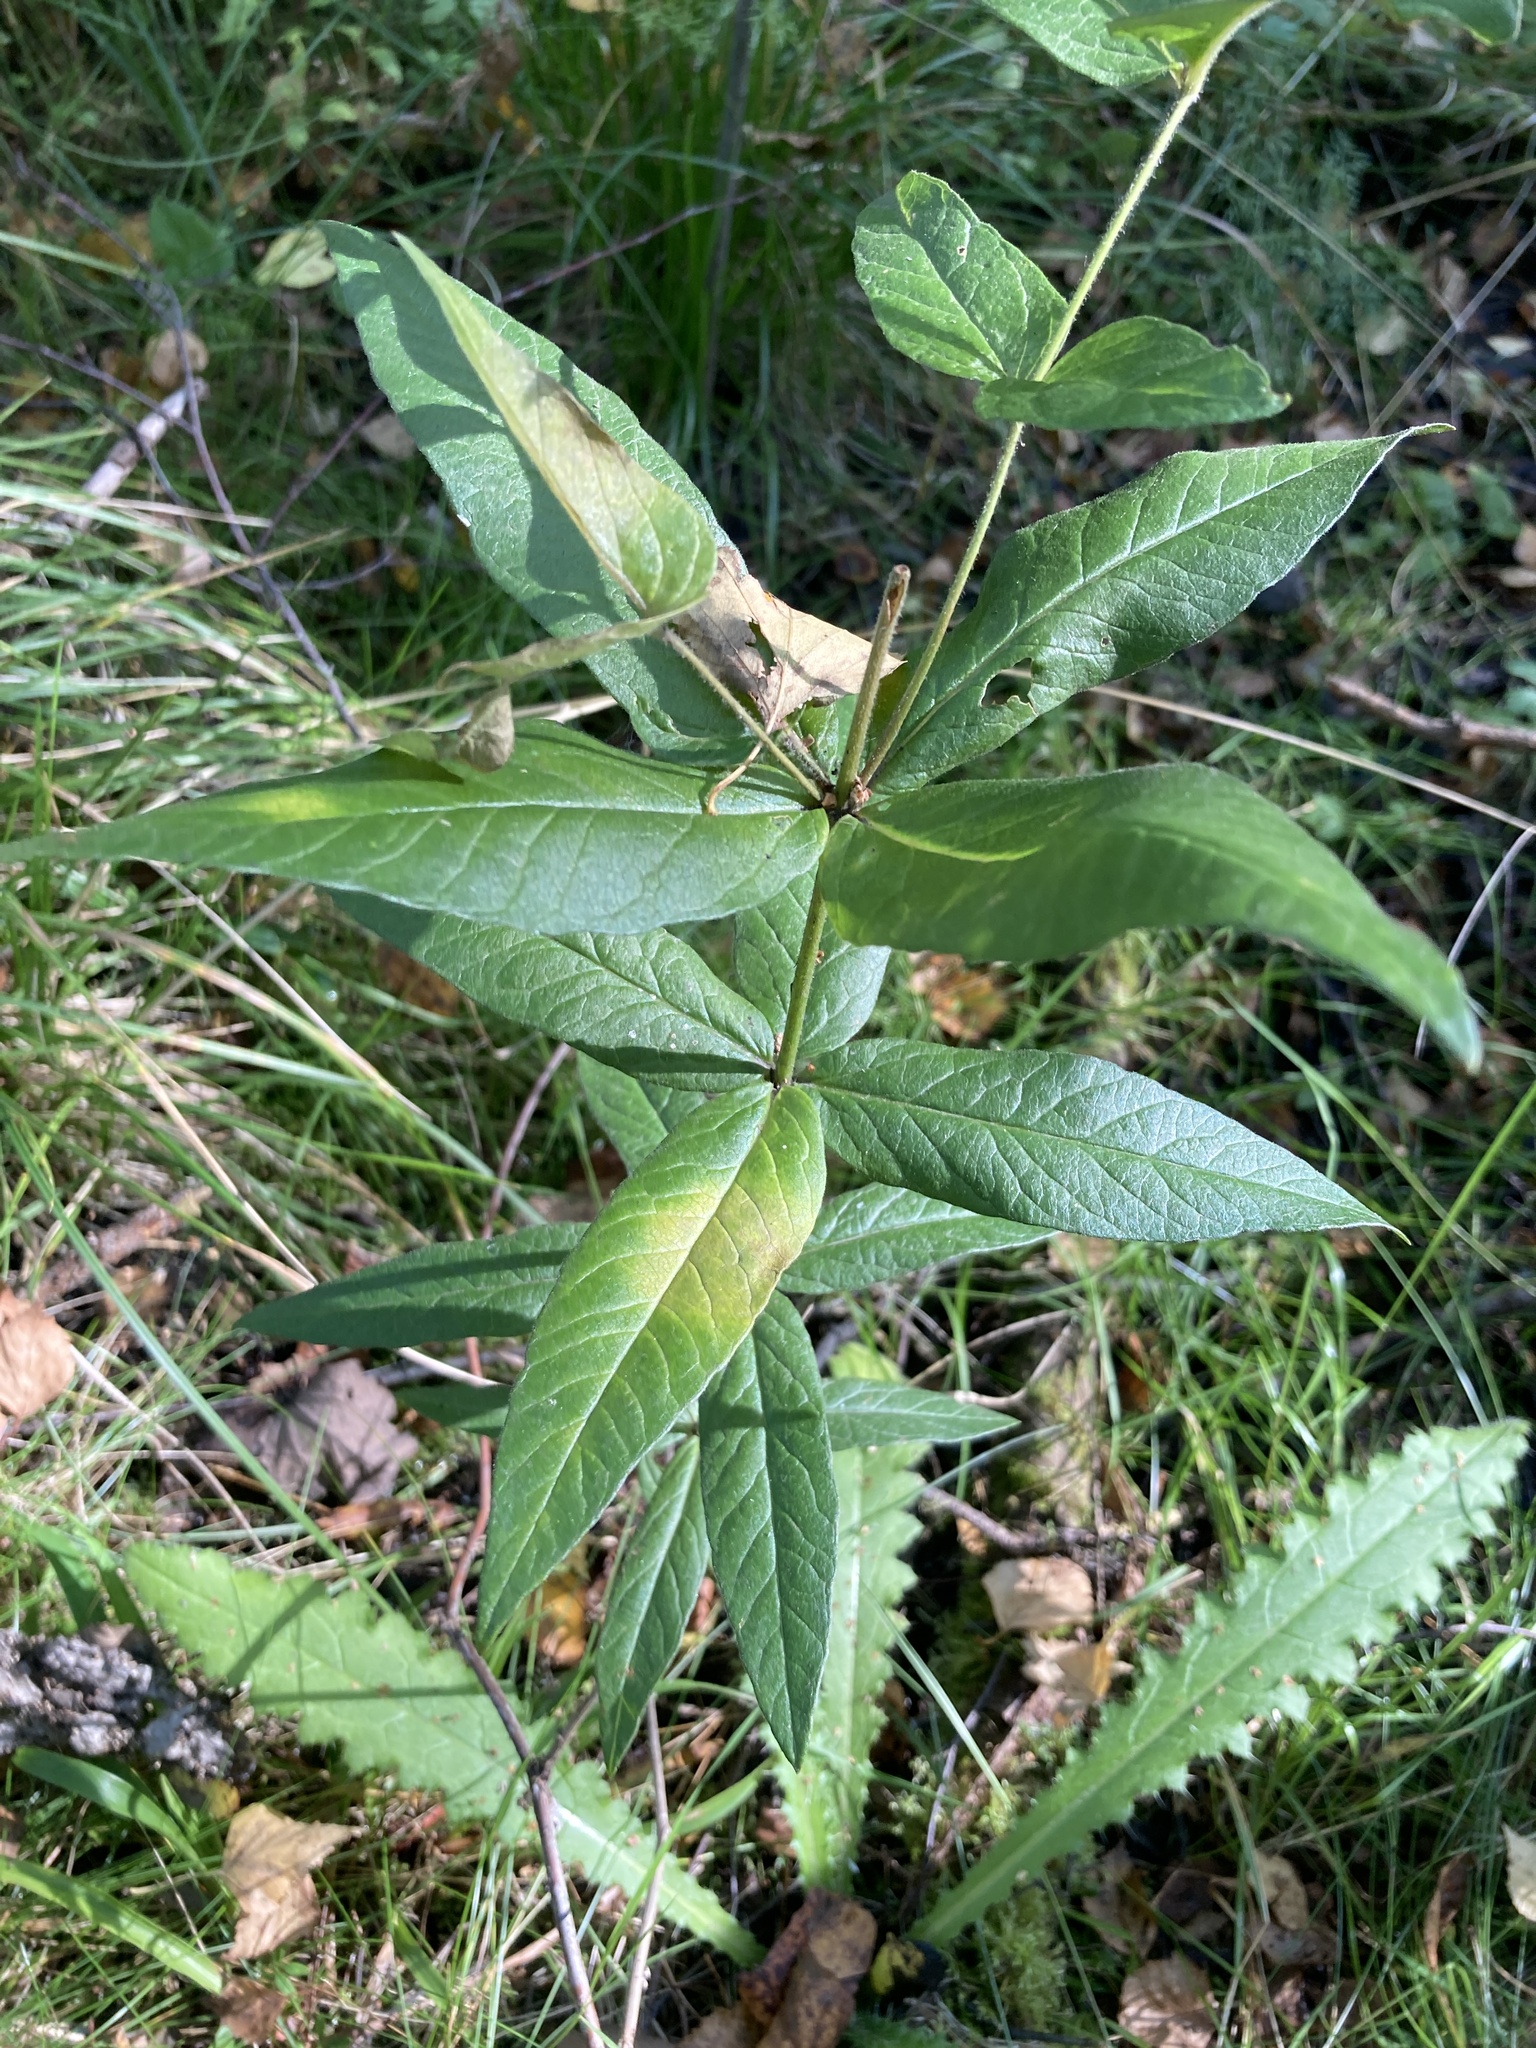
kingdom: Plantae
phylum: Tracheophyta
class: Magnoliopsida
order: Ericales
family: Primulaceae
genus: Lysimachia
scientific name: Lysimachia vulgaris
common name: Yellow loosestrife
